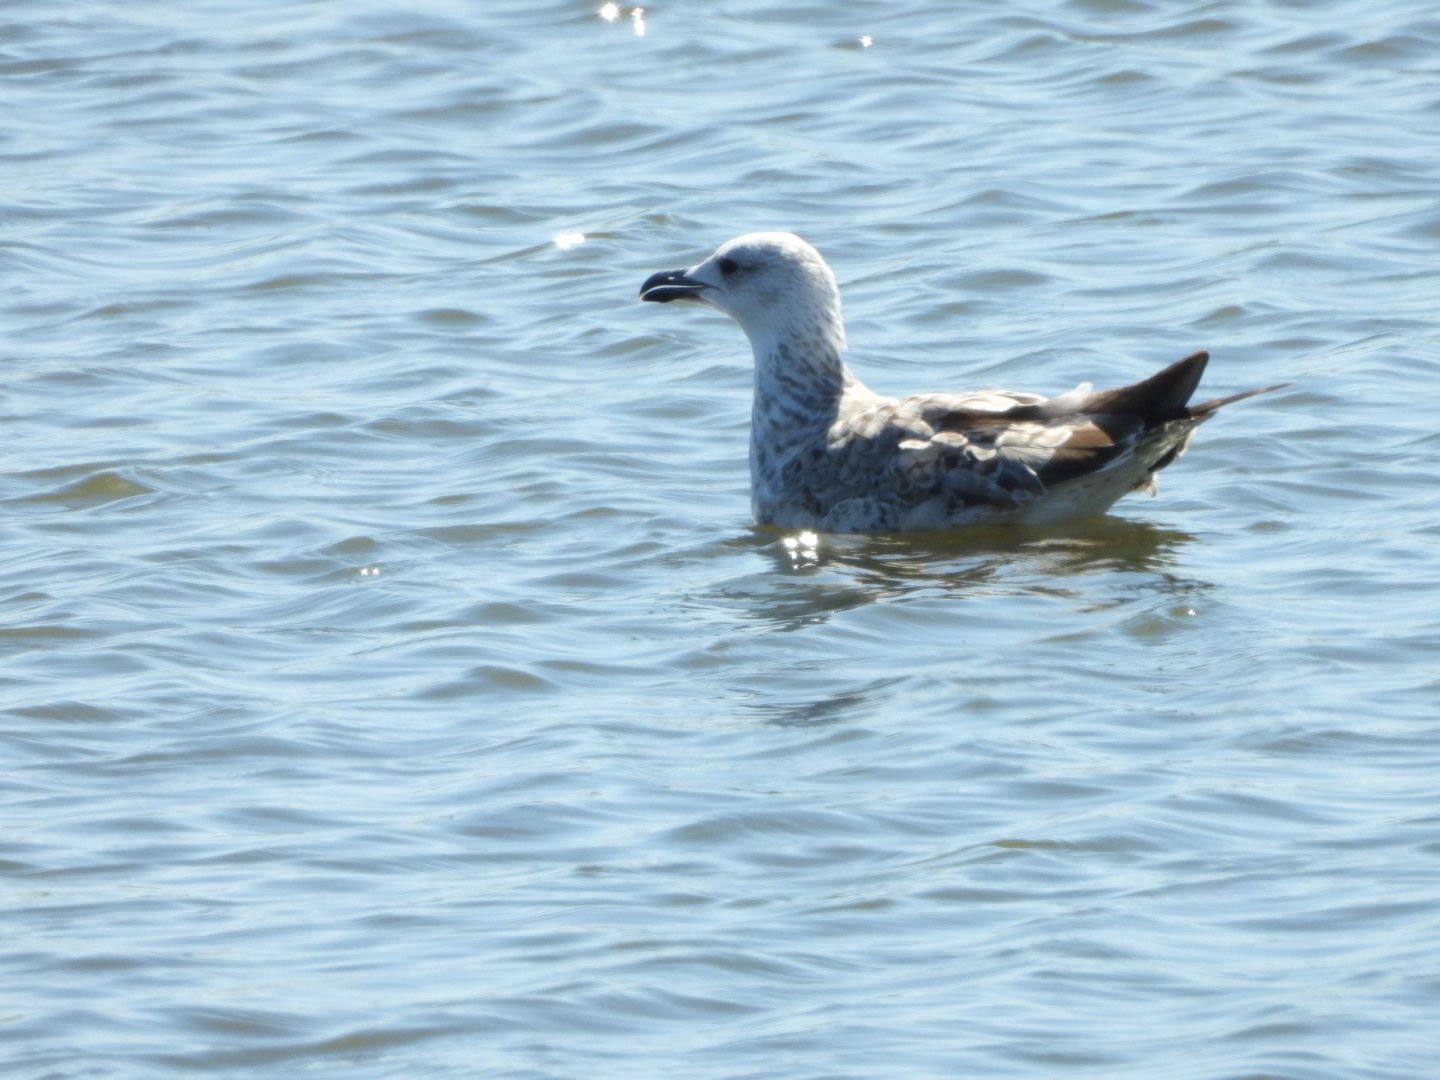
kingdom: Animalia
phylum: Chordata
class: Aves
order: Charadriiformes
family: Laridae
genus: Larus
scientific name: Larus cachinnans
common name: Caspian gull
